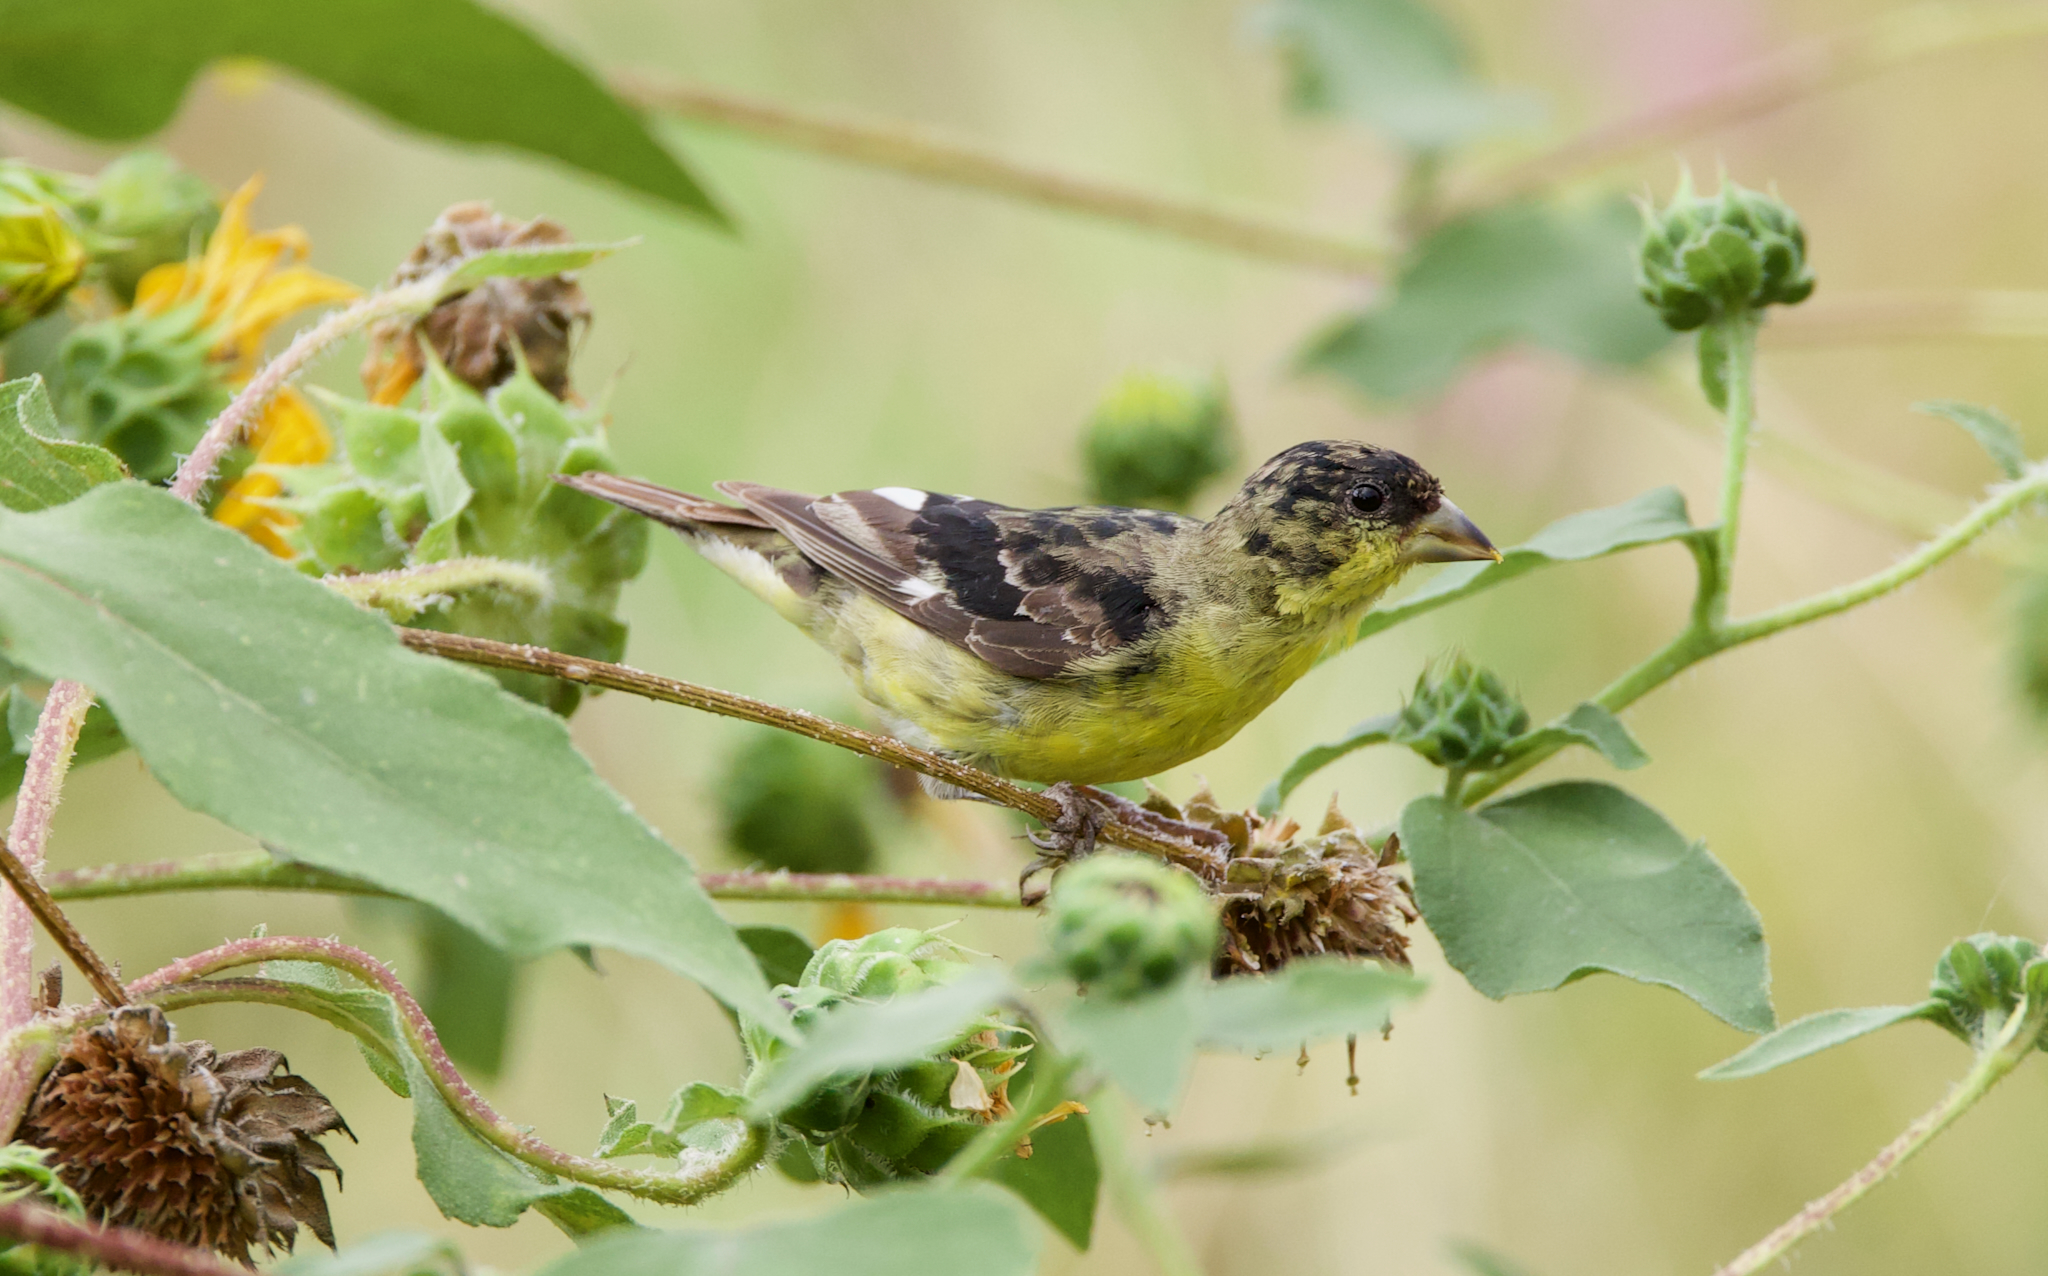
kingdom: Animalia
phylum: Chordata
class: Aves
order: Passeriformes
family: Fringillidae
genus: Spinus
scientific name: Spinus psaltria
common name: Lesser goldfinch
